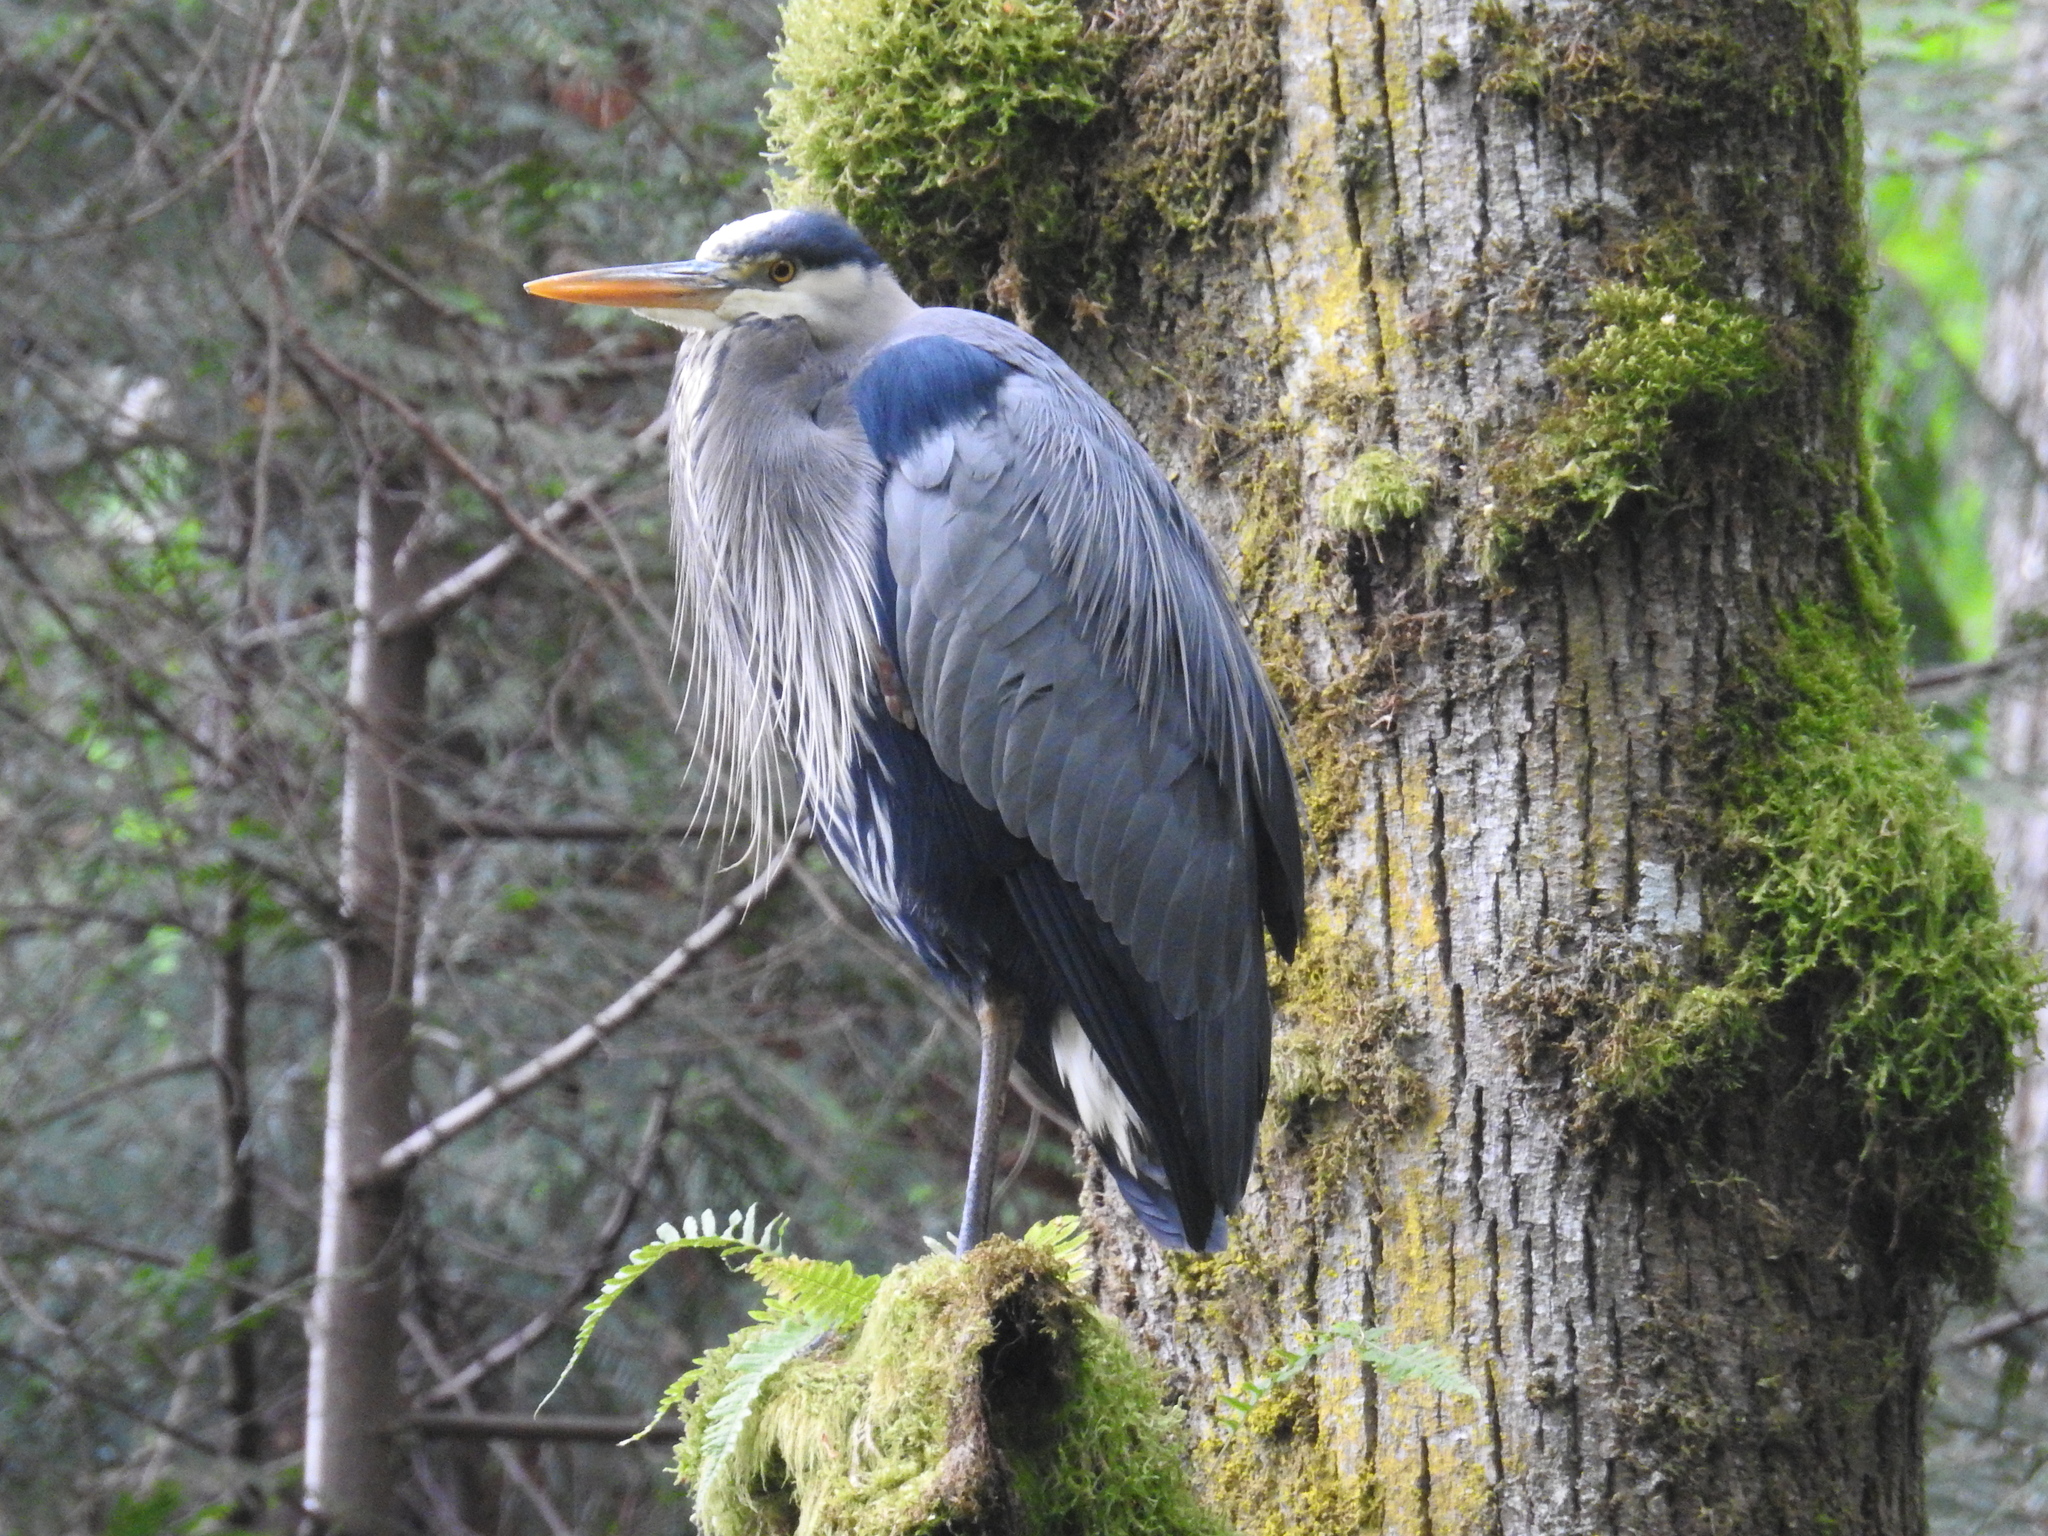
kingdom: Animalia
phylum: Chordata
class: Aves
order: Pelecaniformes
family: Ardeidae
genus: Ardea
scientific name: Ardea herodias
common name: Great blue heron
